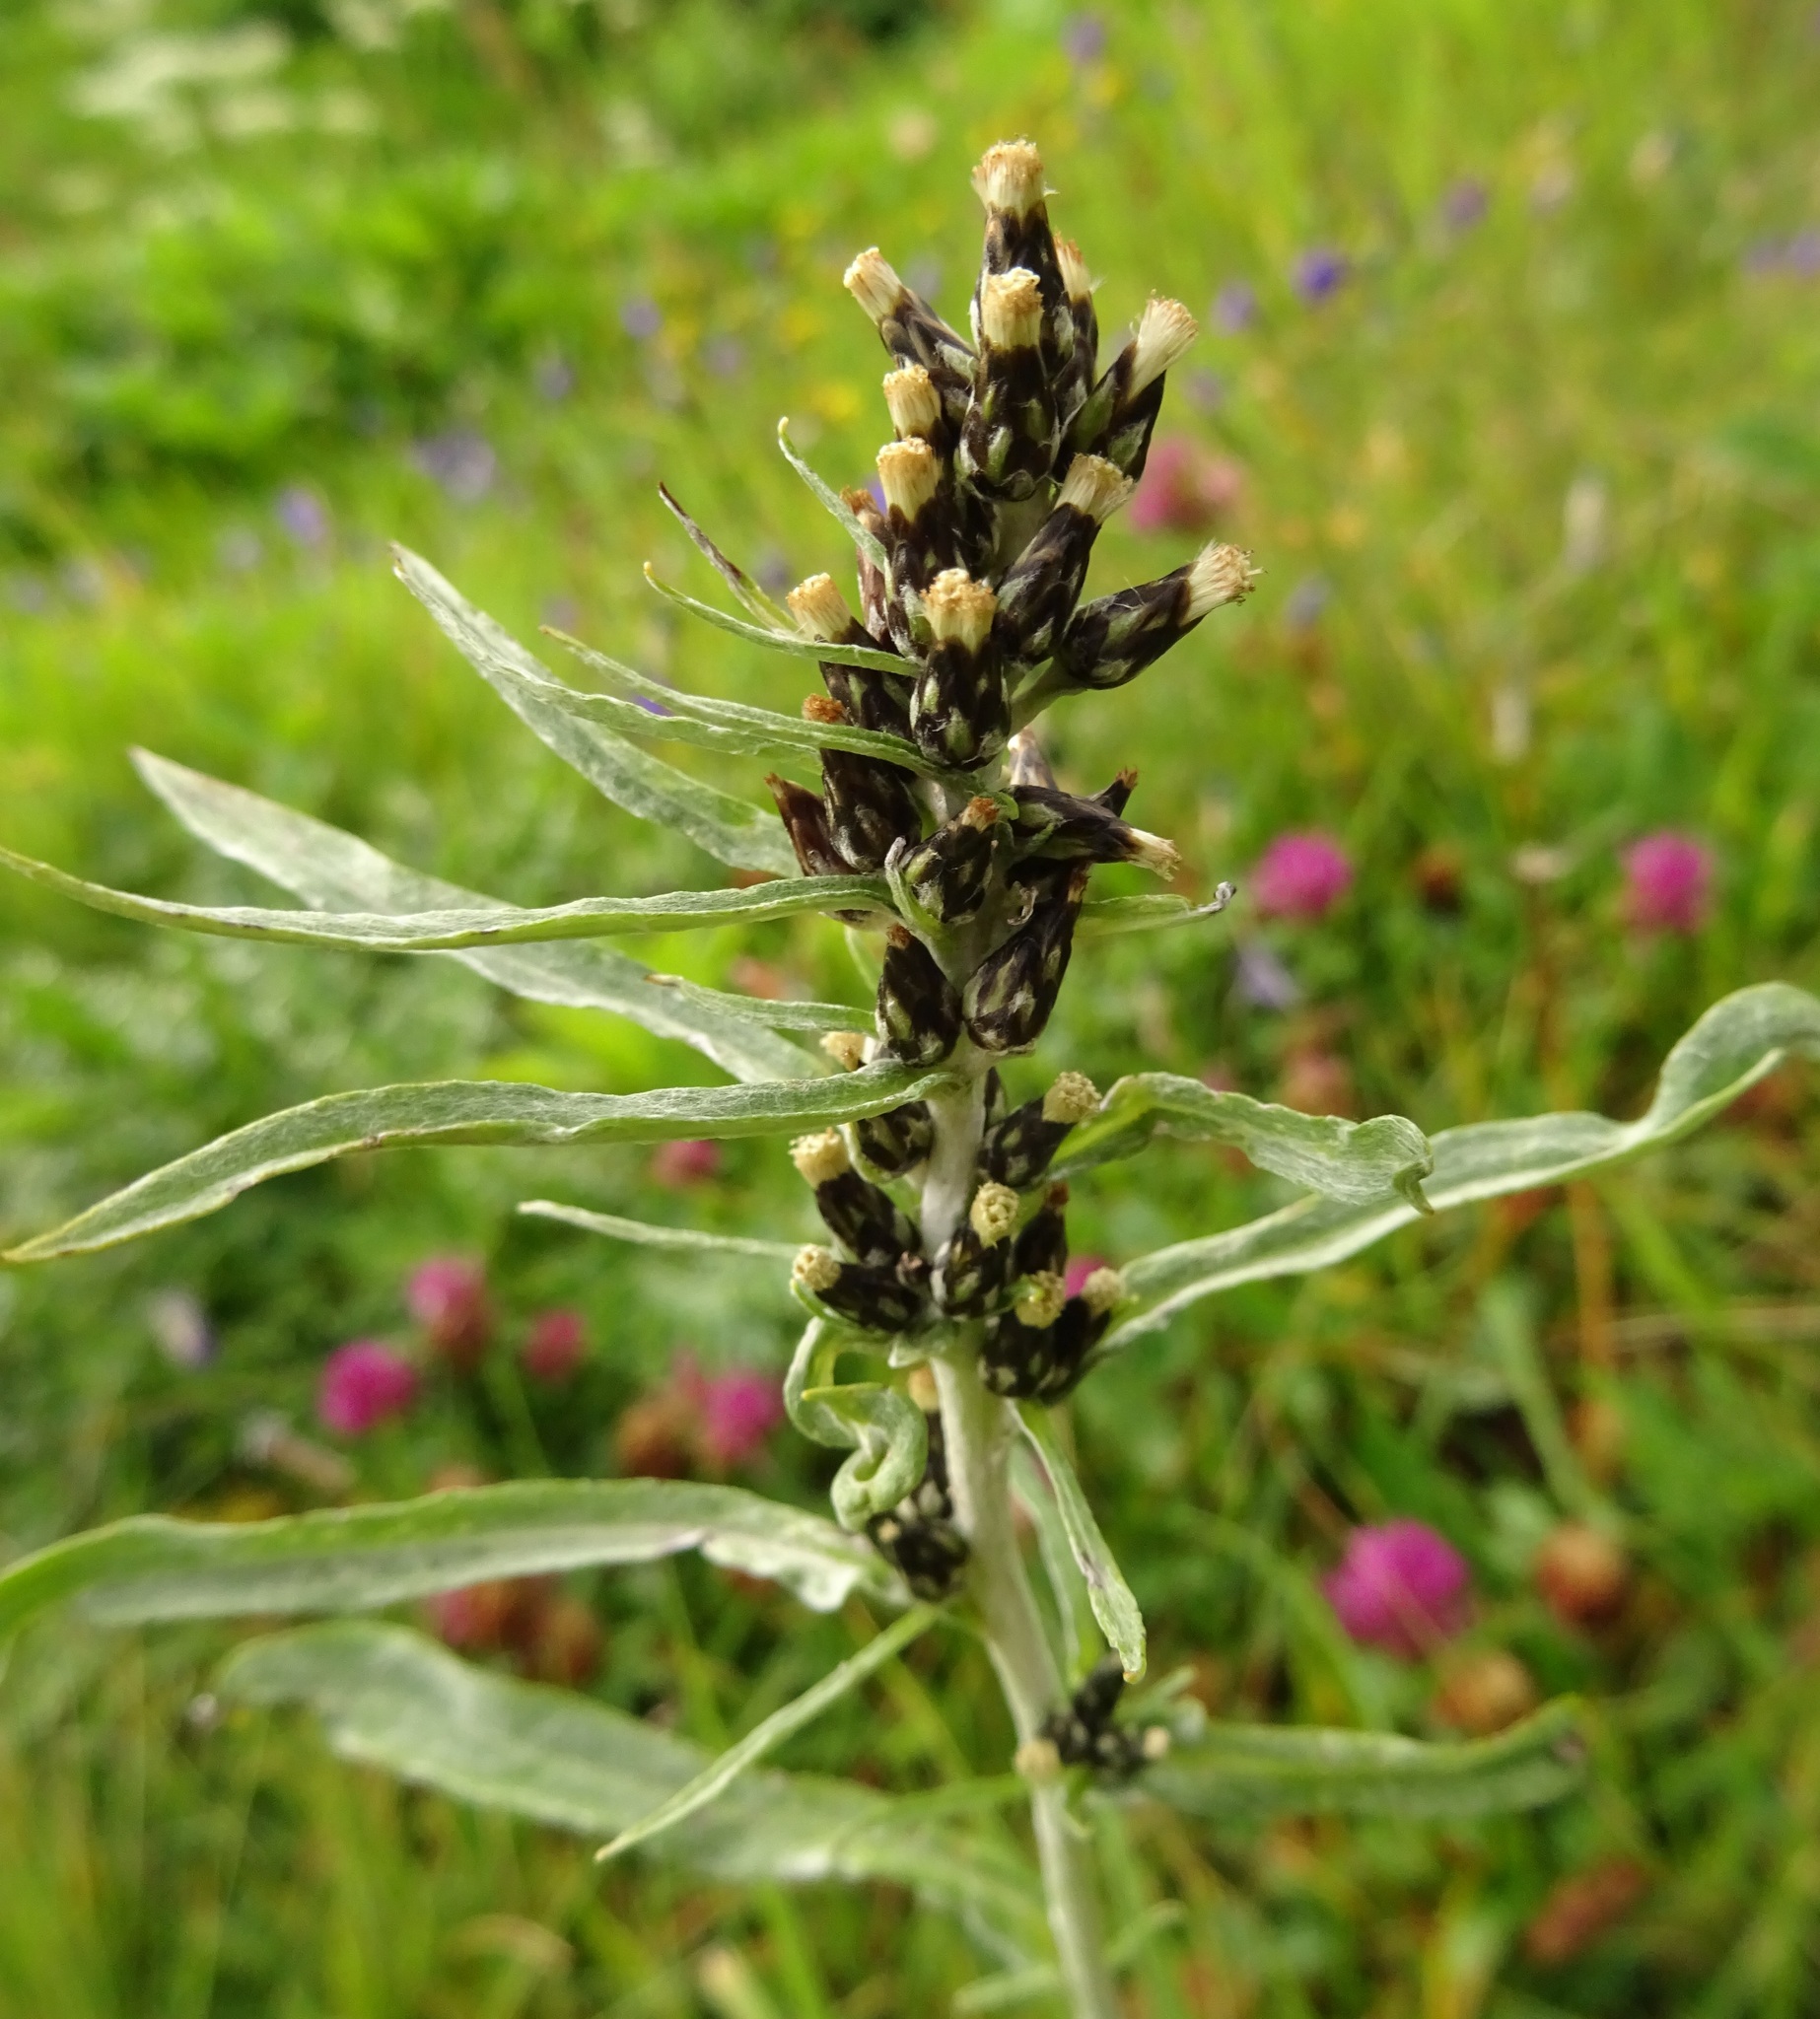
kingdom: Plantae
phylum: Tracheophyta
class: Magnoliopsida
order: Asterales
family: Asteraceae
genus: Omalotheca
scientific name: Omalotheca norvegica
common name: Norwegian arctic-cudweed
